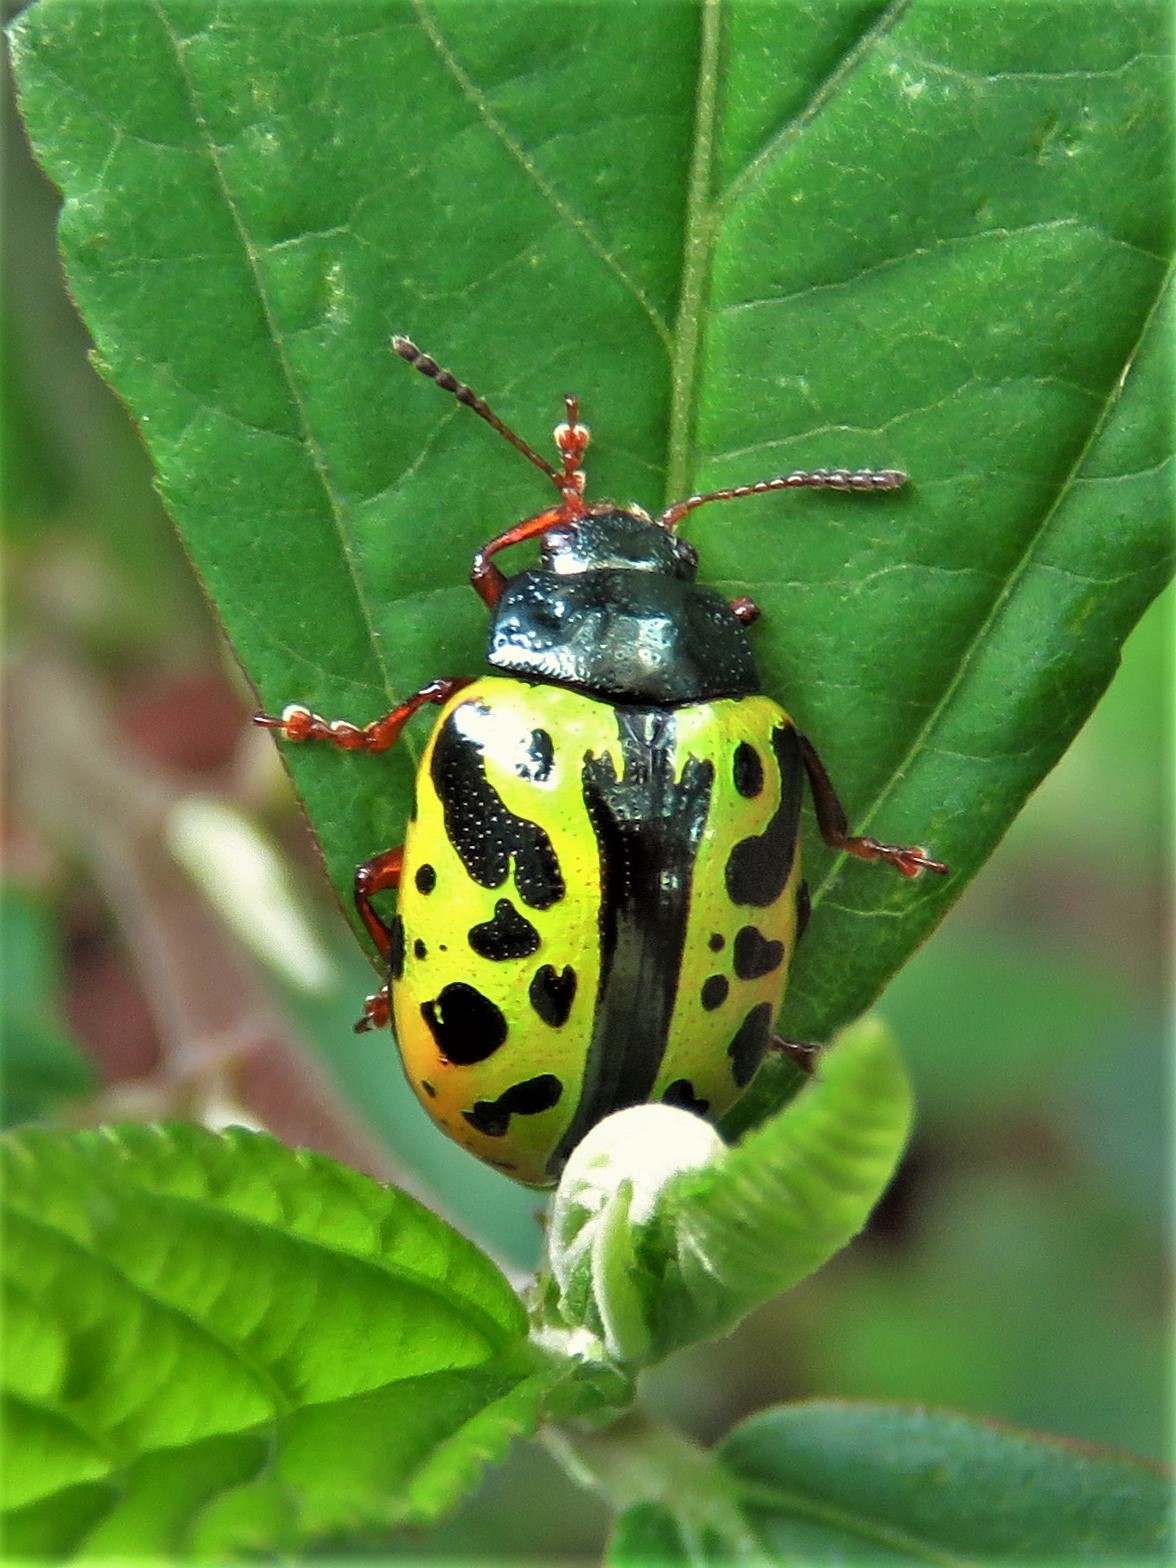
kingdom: Animalia
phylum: Arthropoda
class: Insecta
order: Coleoptera
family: Chrysomelidae
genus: Calligrapha
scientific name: Calligrapha fulvipes
